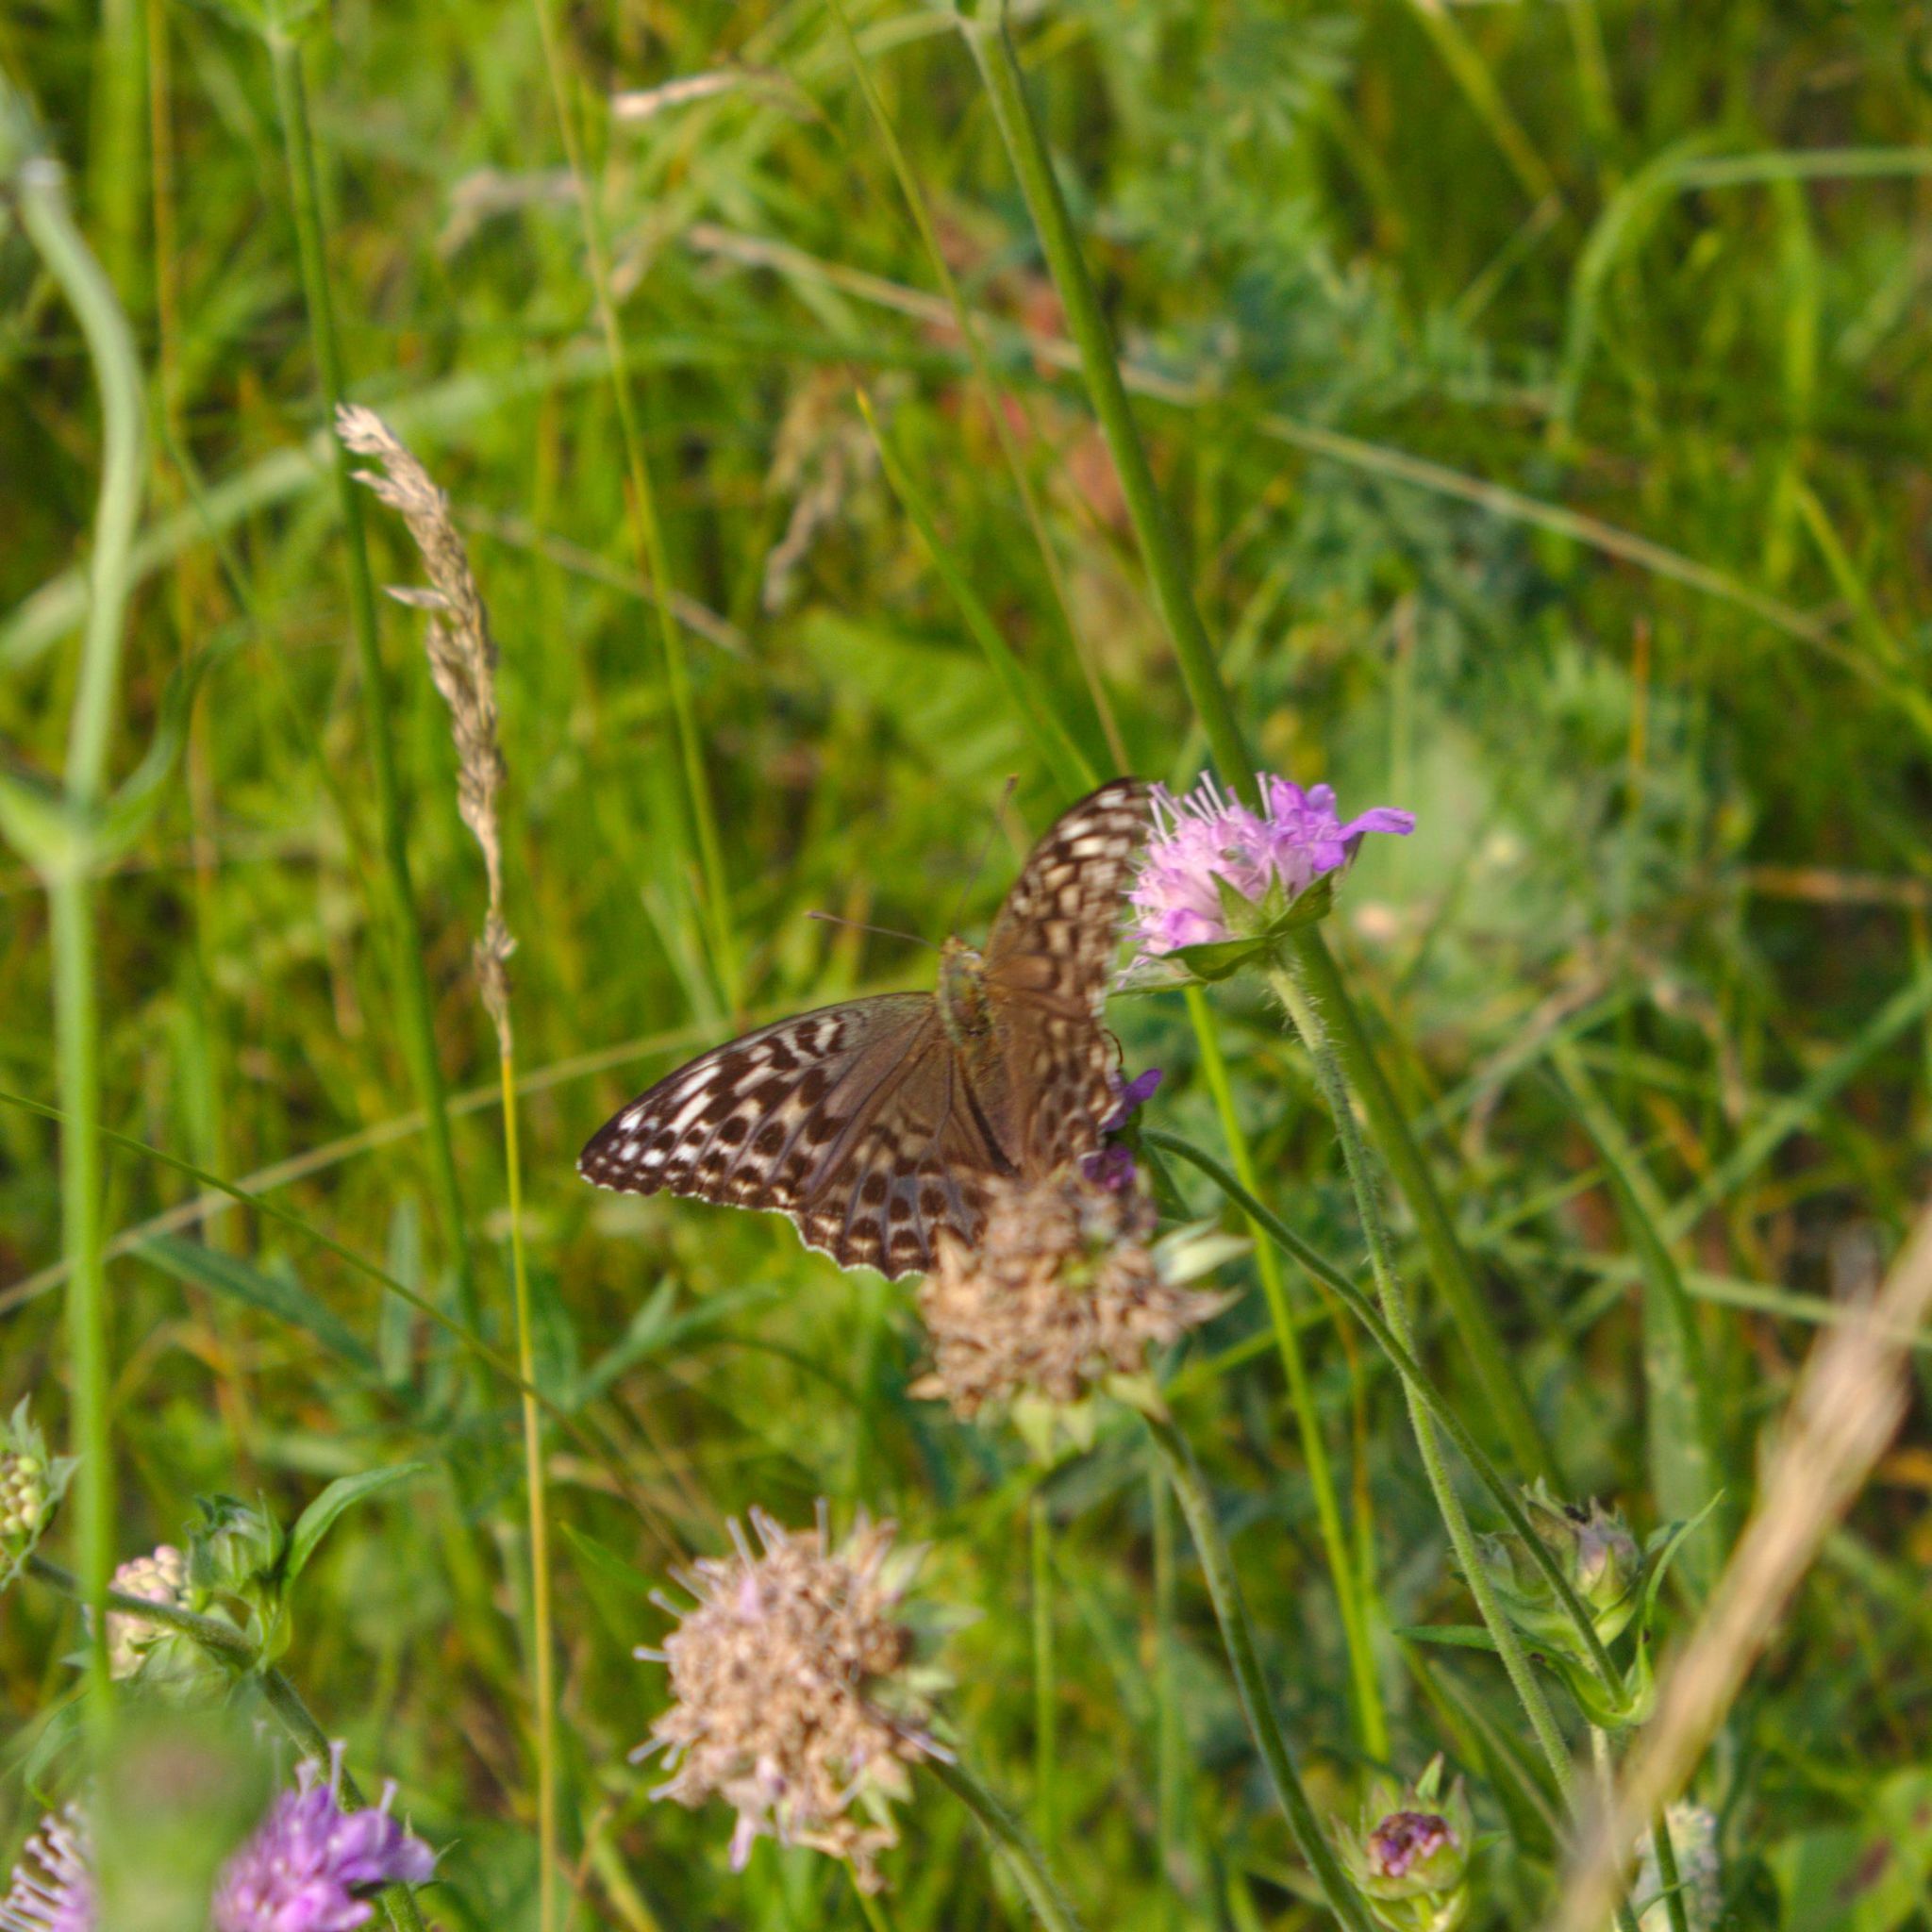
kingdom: Animalia
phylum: Arthropoda
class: Insecta
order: Lepidoptera
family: Nymphalidae
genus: Argynnis
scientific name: Argynnis paphia
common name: Silver-washed fritillary
